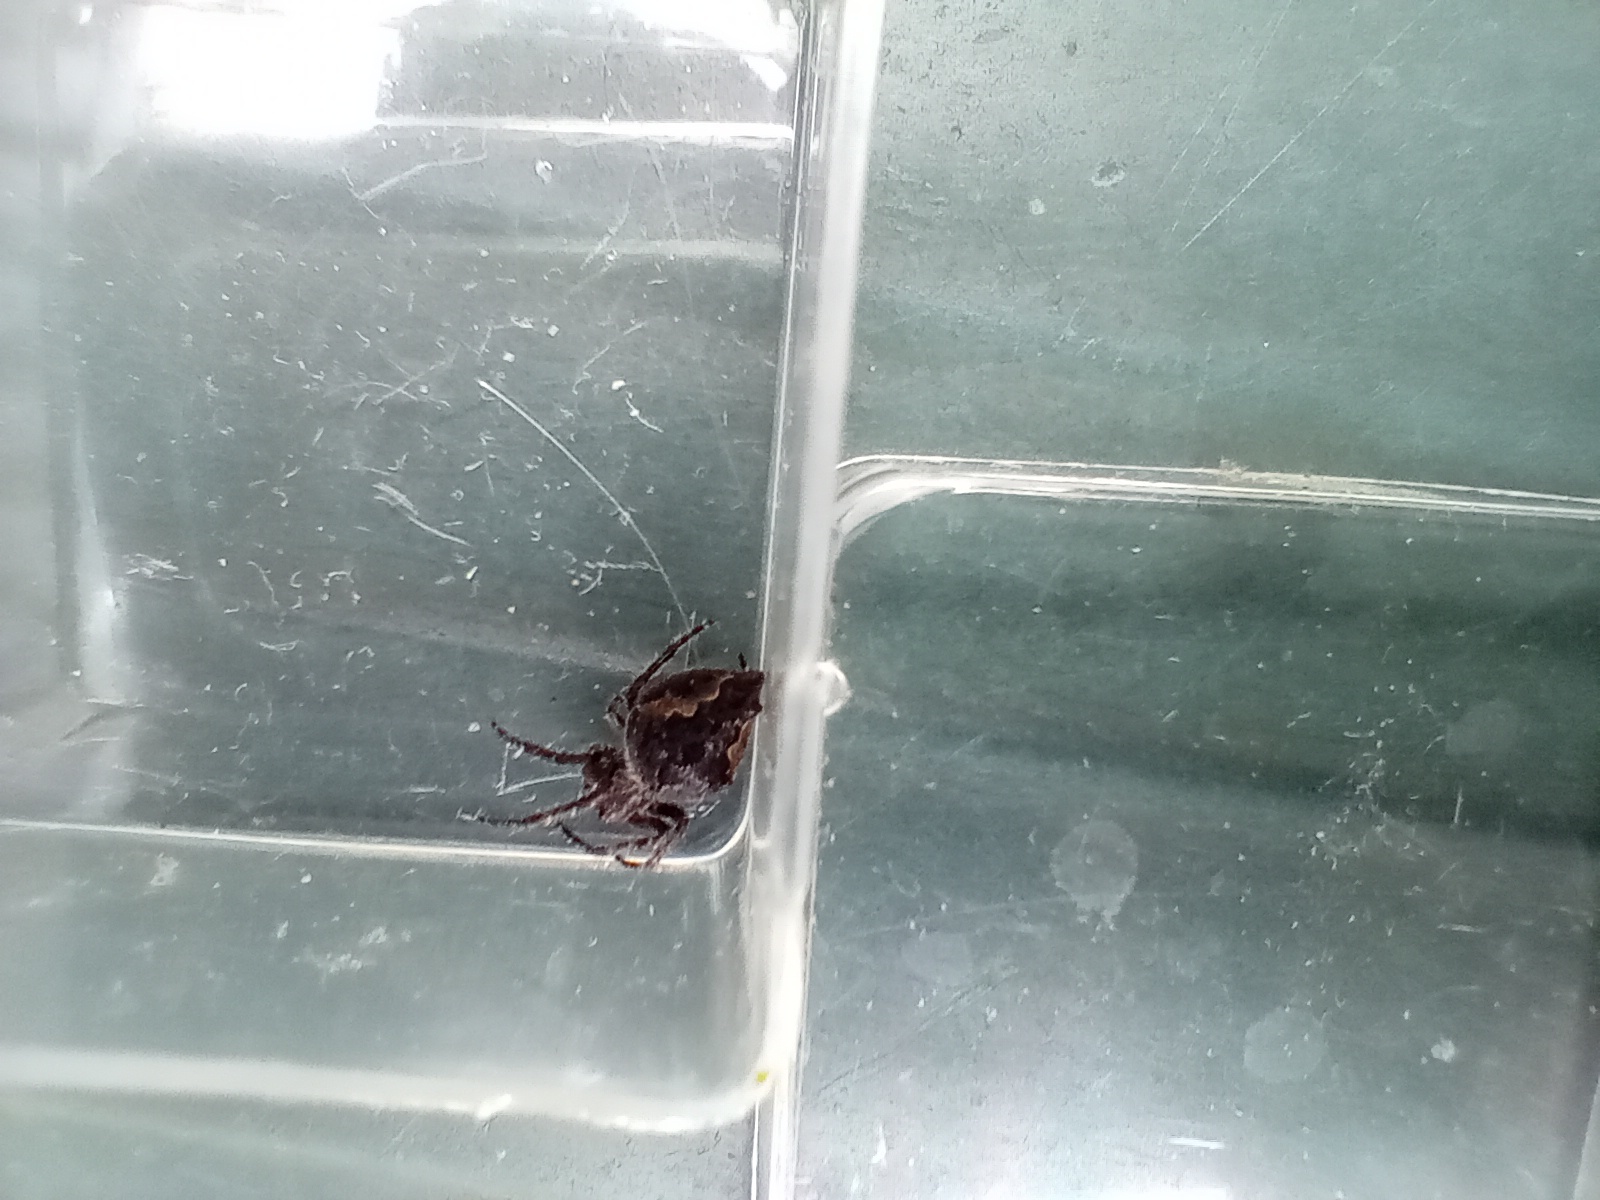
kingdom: Animalia
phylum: Arthropoda
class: Arachnida
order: Araneae
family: Araneidae
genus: Eriophora
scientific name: Eriophora pustulosa
